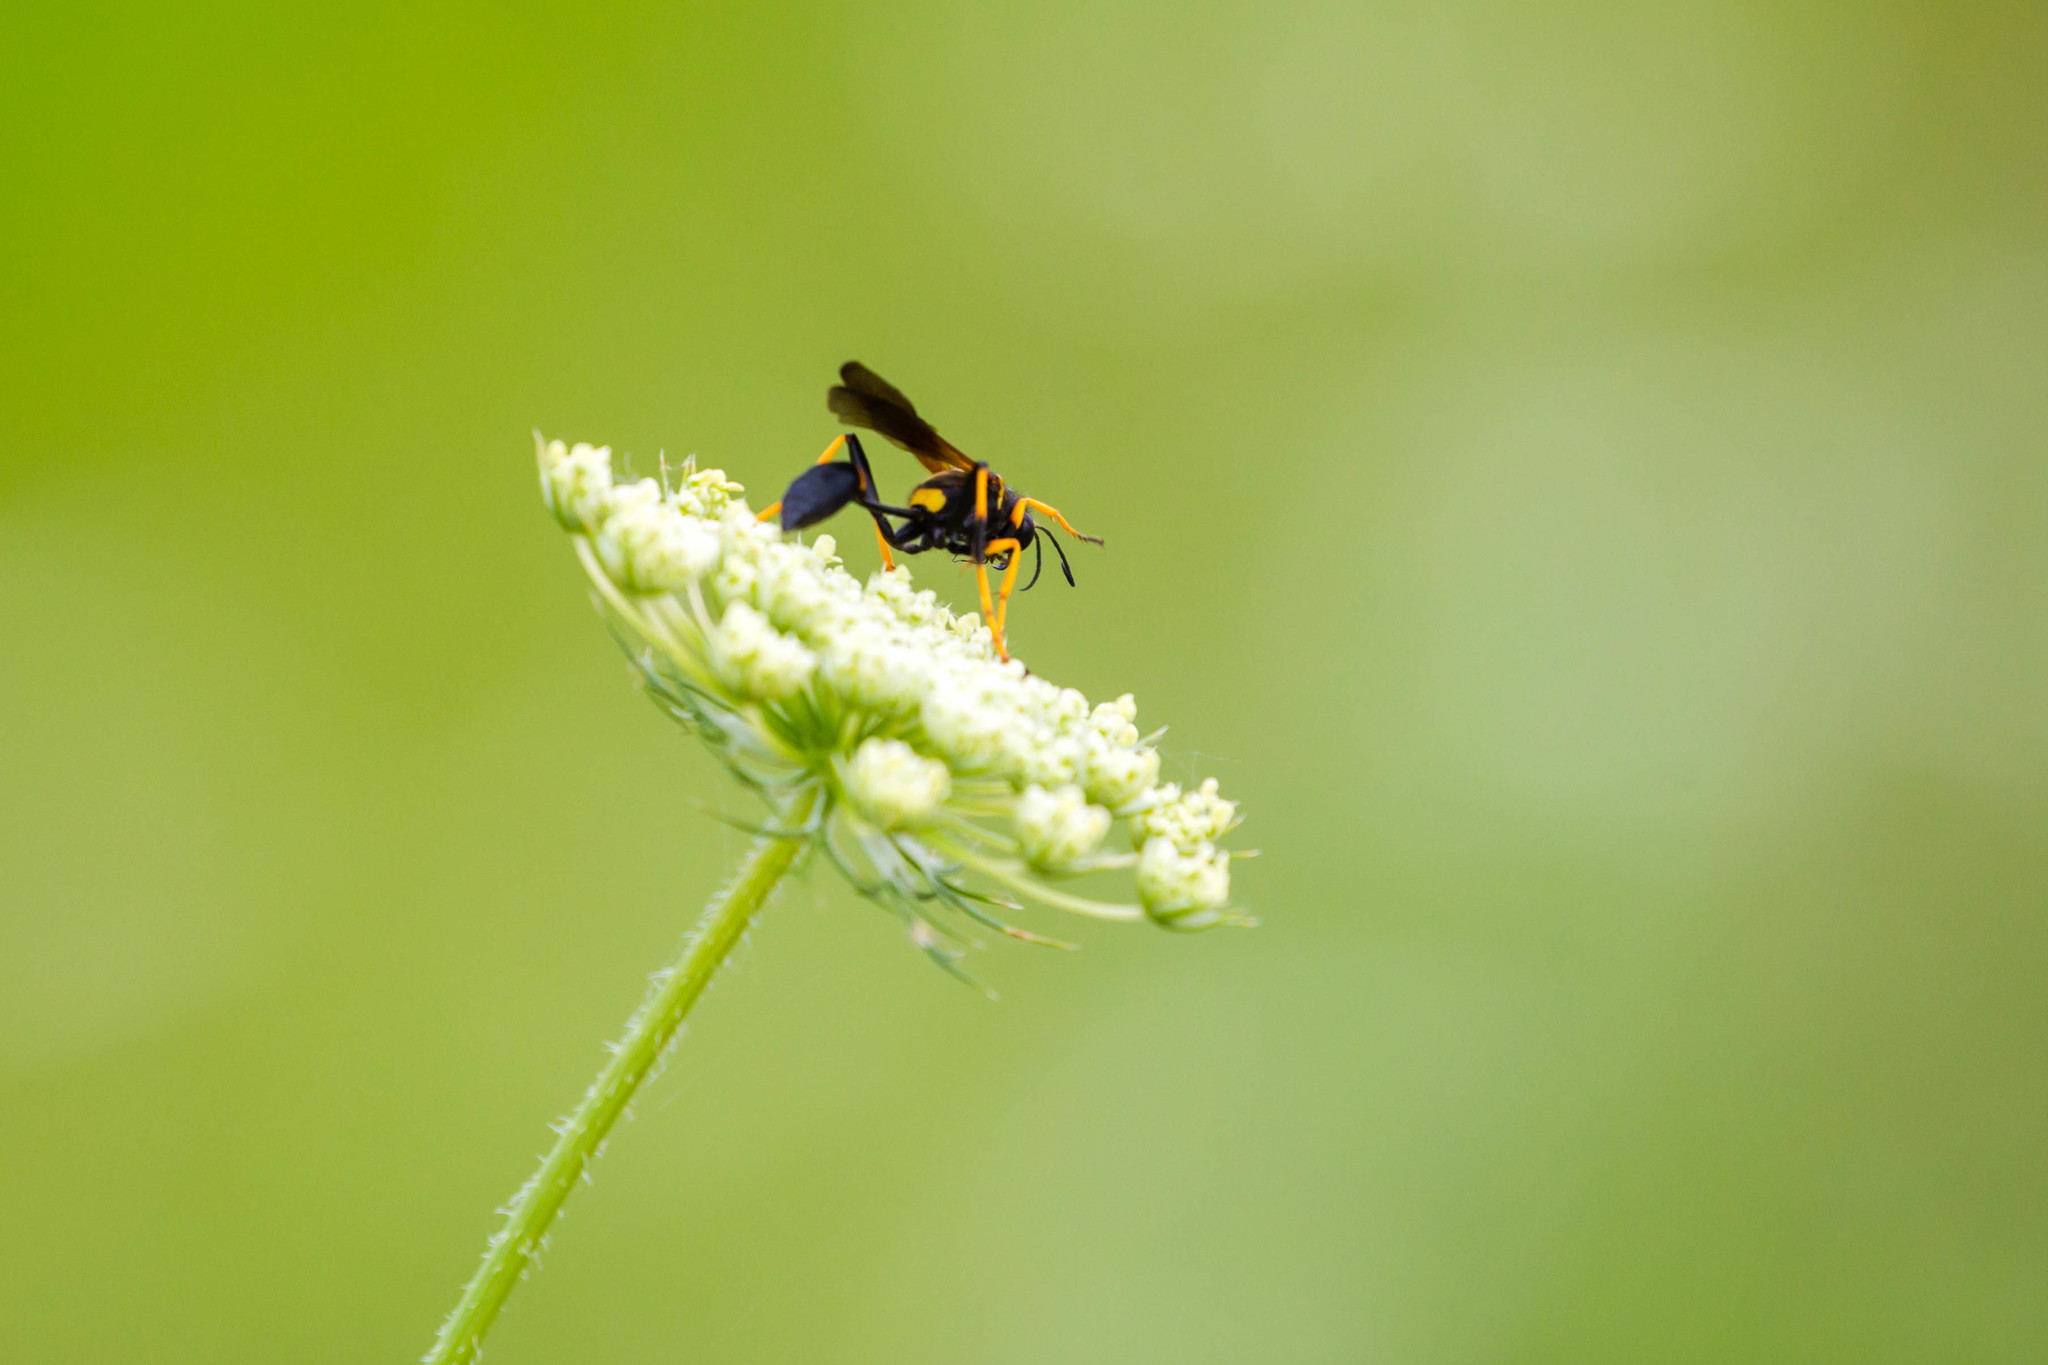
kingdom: Animalia
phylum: Arthropoda
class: Insecta
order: Hymenoptera
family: Sphecidae
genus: Sceliphron
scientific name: Sceliphron caementarium
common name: Mud dauber
